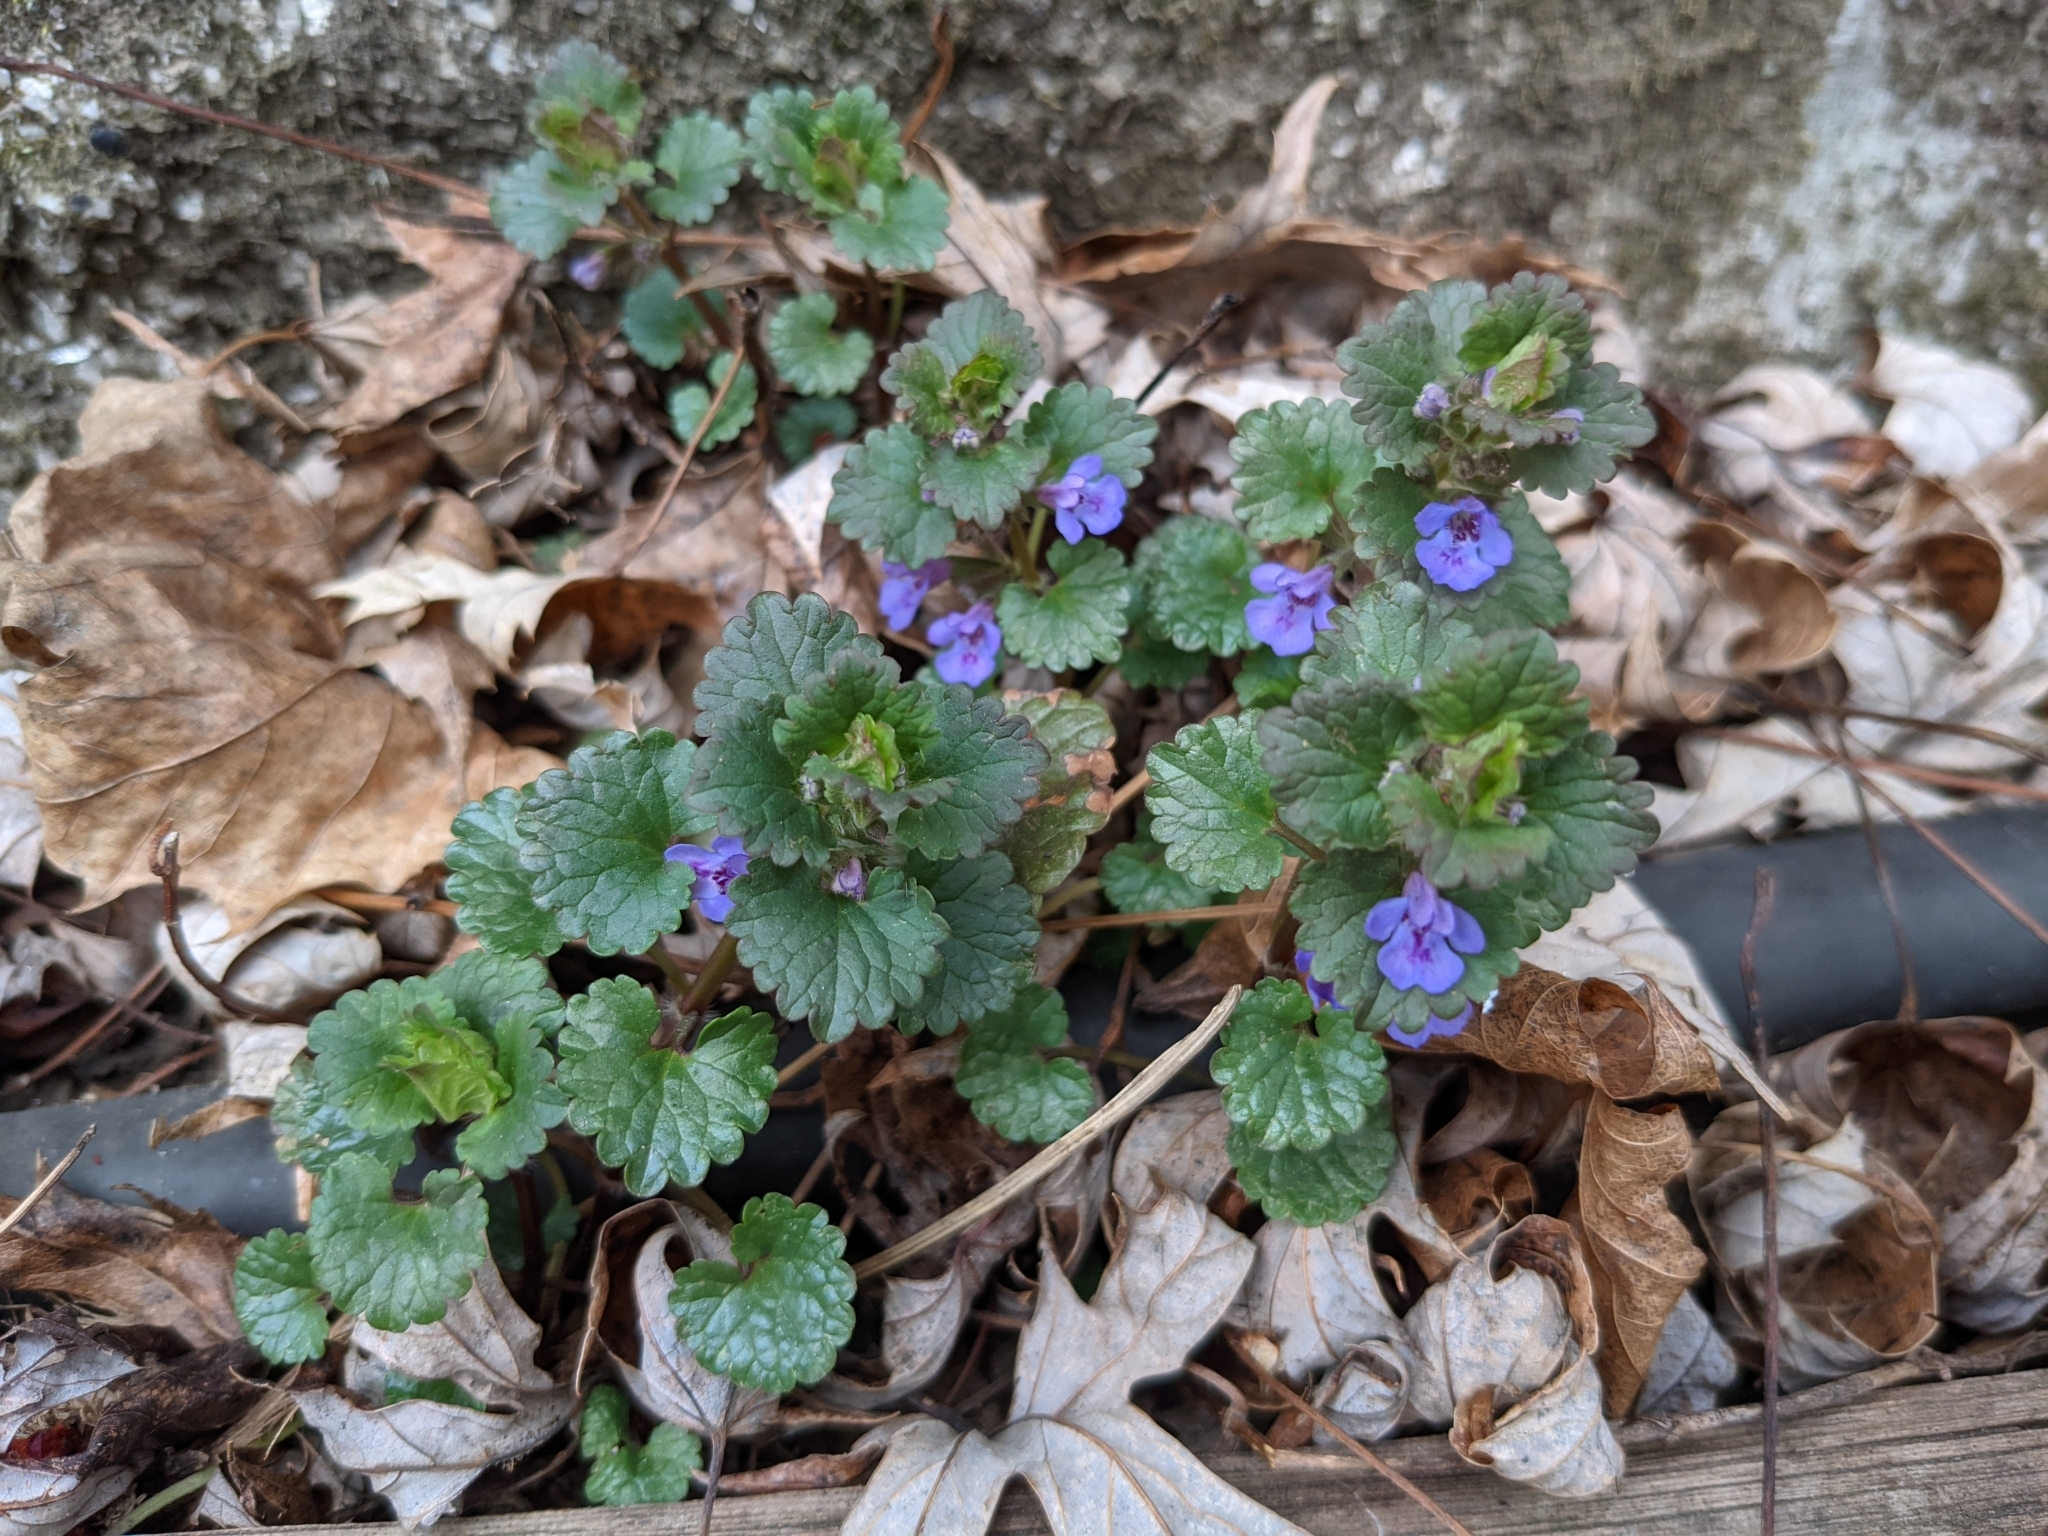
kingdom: Plantae
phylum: Tracheophyta
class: Magnoliopsida
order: Lamiales
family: Lamiaceae
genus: Glechoma
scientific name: Glechoma hederacea
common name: Ground ivy
